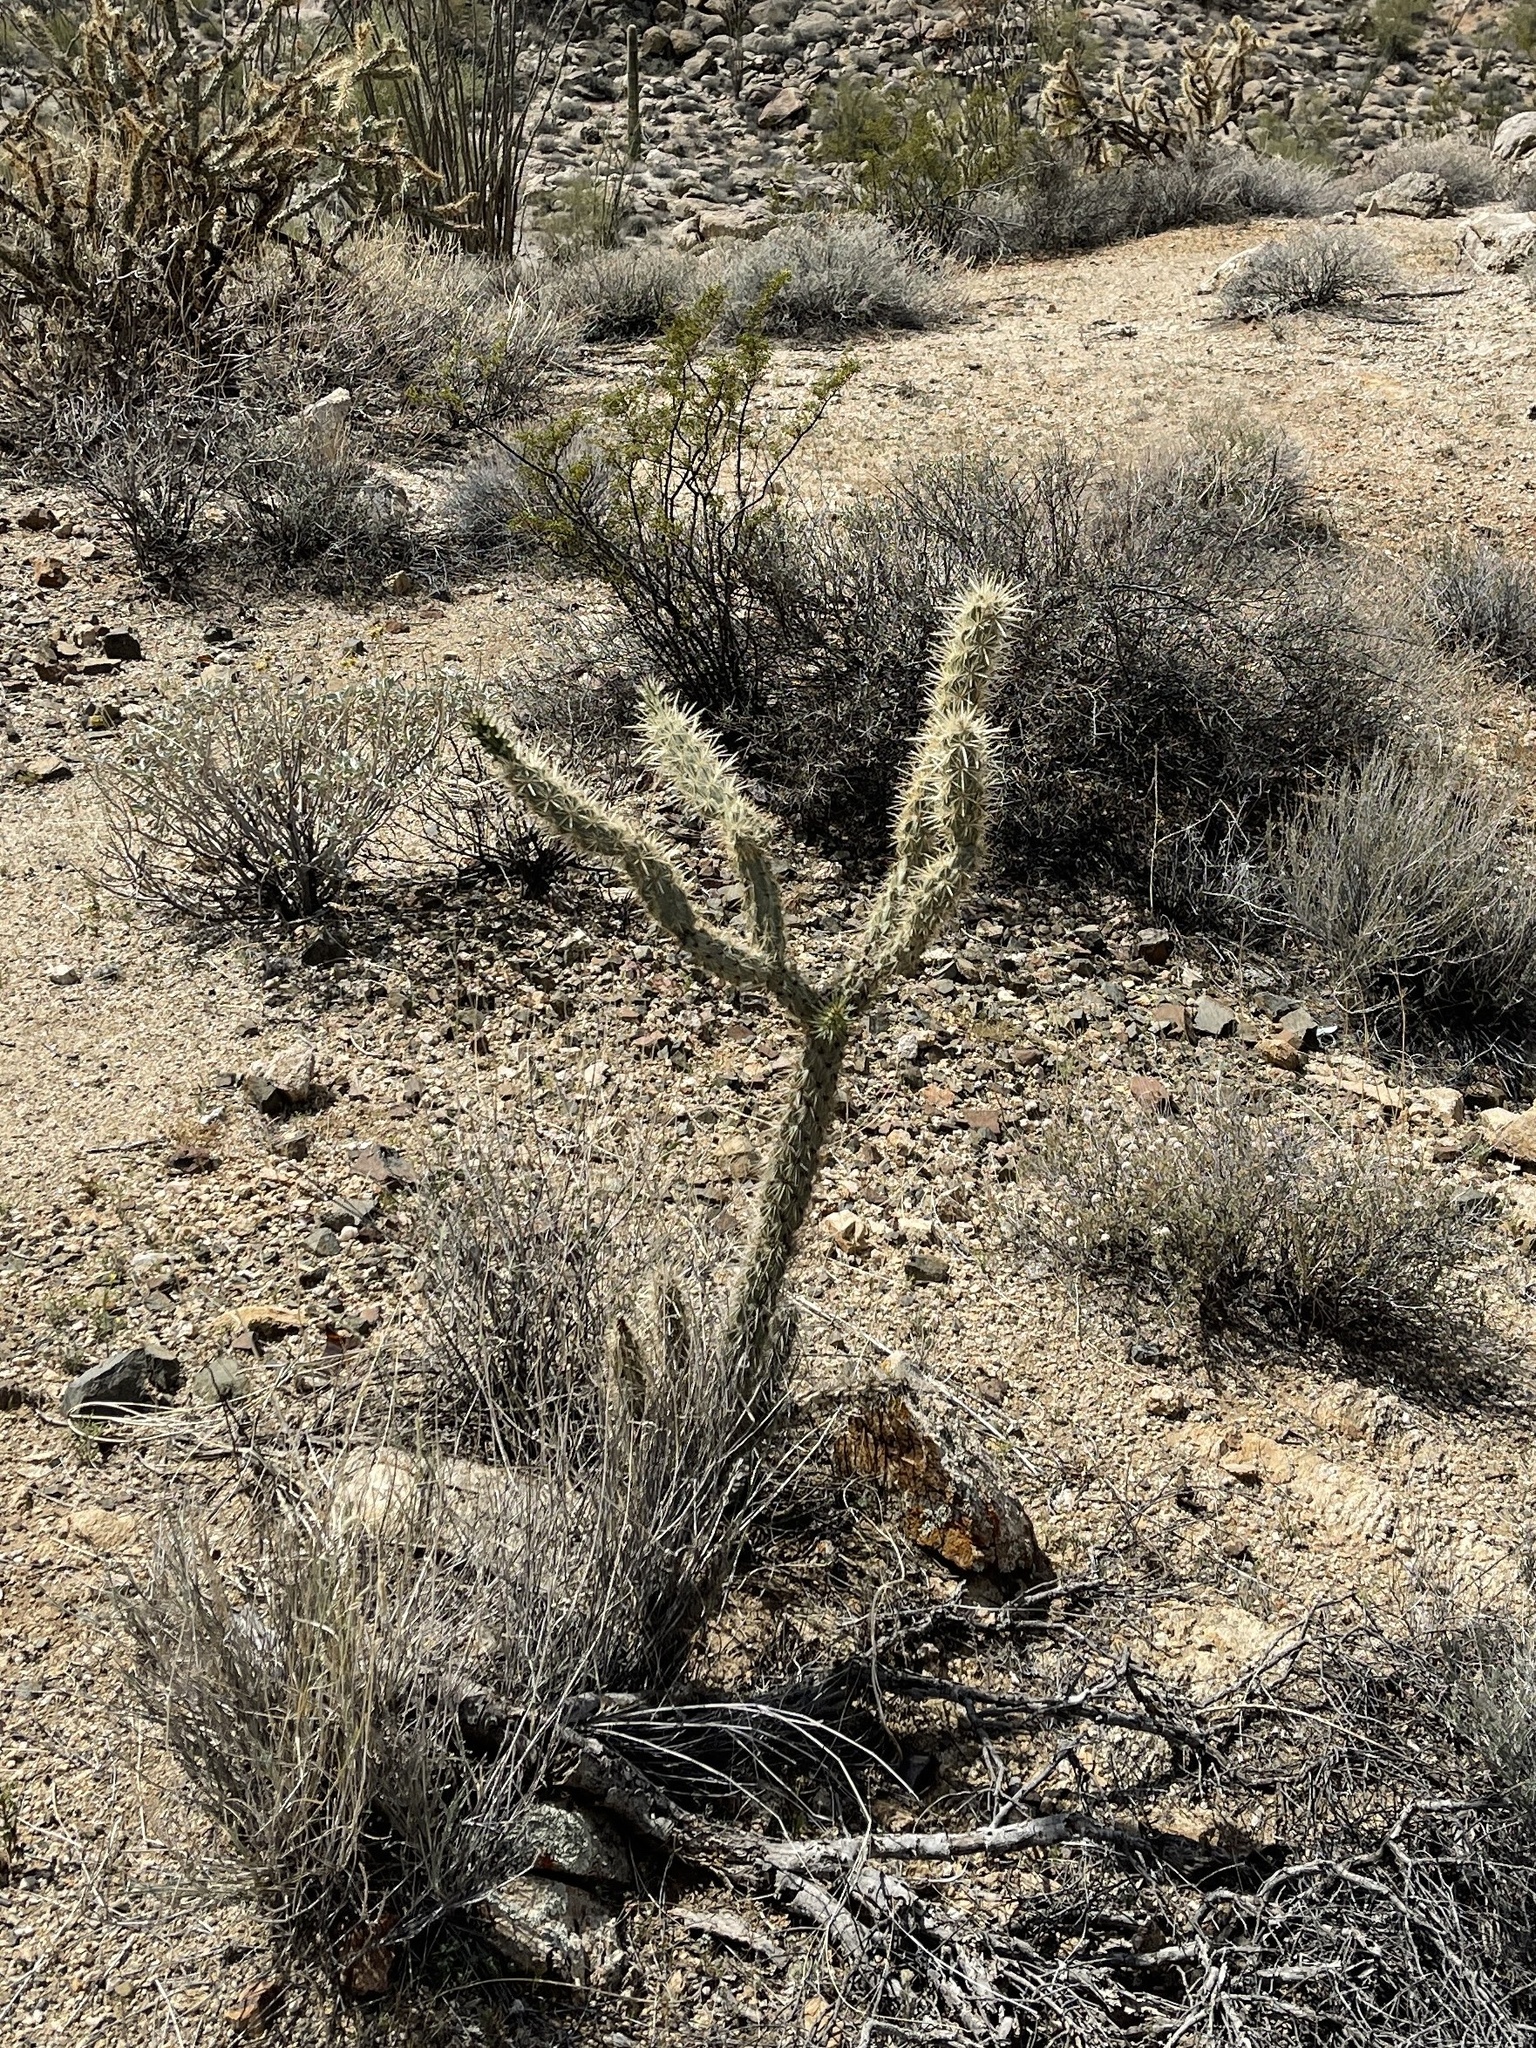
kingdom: Plantae
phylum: Tracheophyta
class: Magnoliopsida
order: Caryophyllales
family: Cactaceae
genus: Cylindropuntia
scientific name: Cylindropuntia acanthocarpa
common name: Buckhorn cholla
